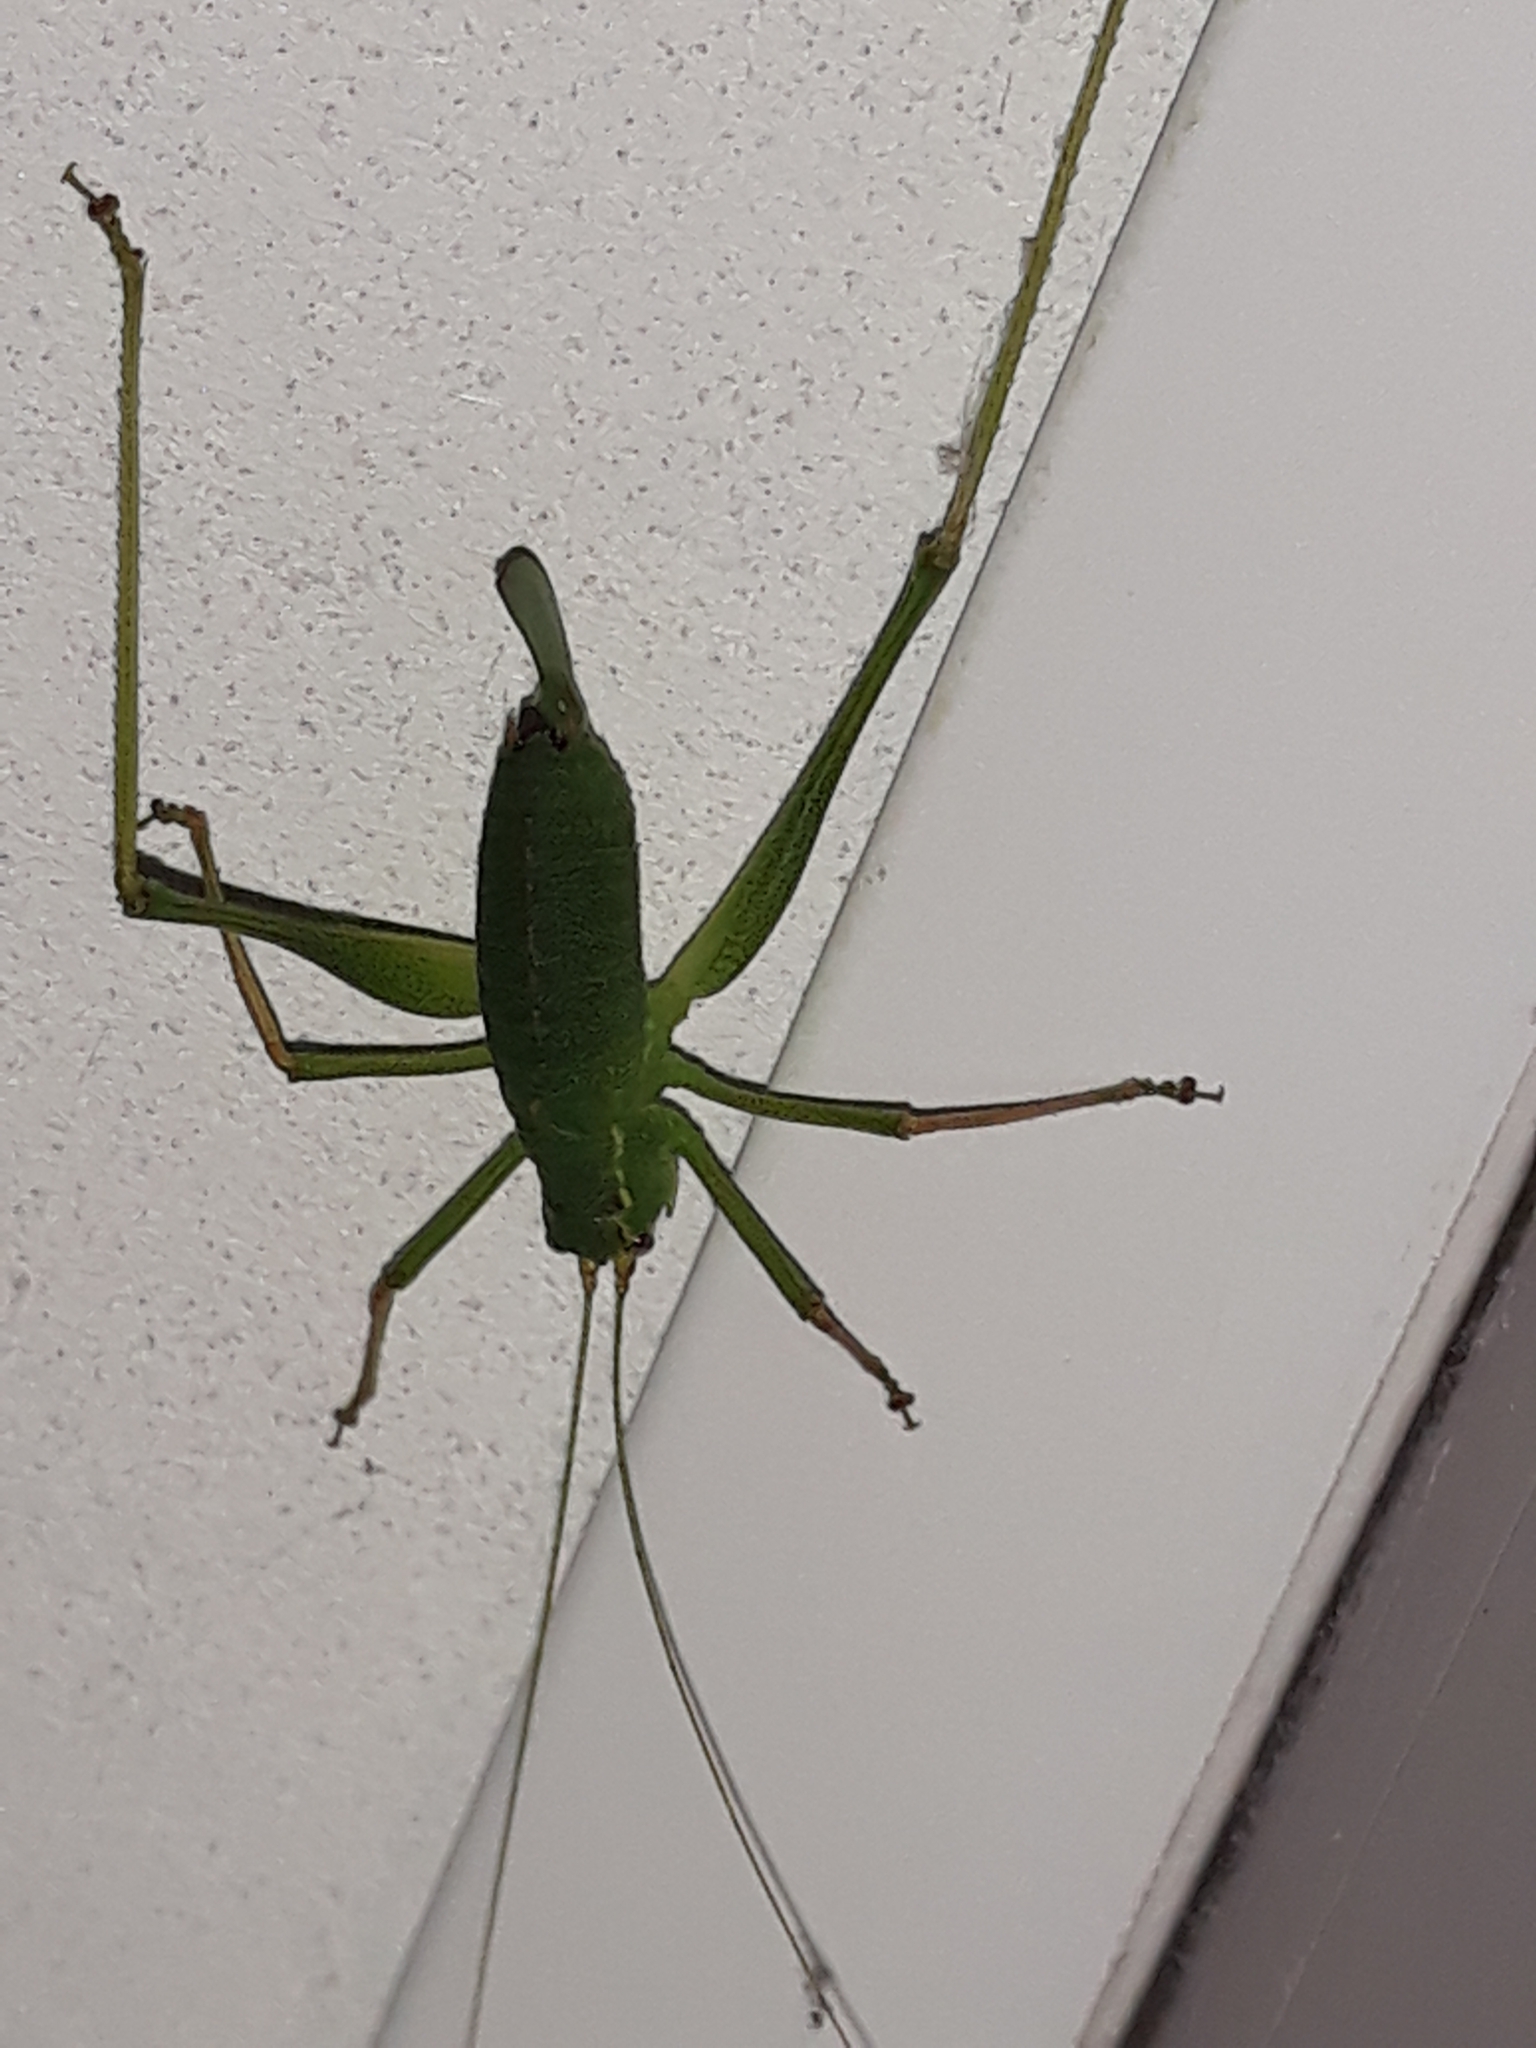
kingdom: Animalia
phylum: Arthropoda
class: Insecta
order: Orthoptera
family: Tettigoniidae
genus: Leptophyes
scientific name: Leptophyes punctatissima
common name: Speckled bush-cricket
